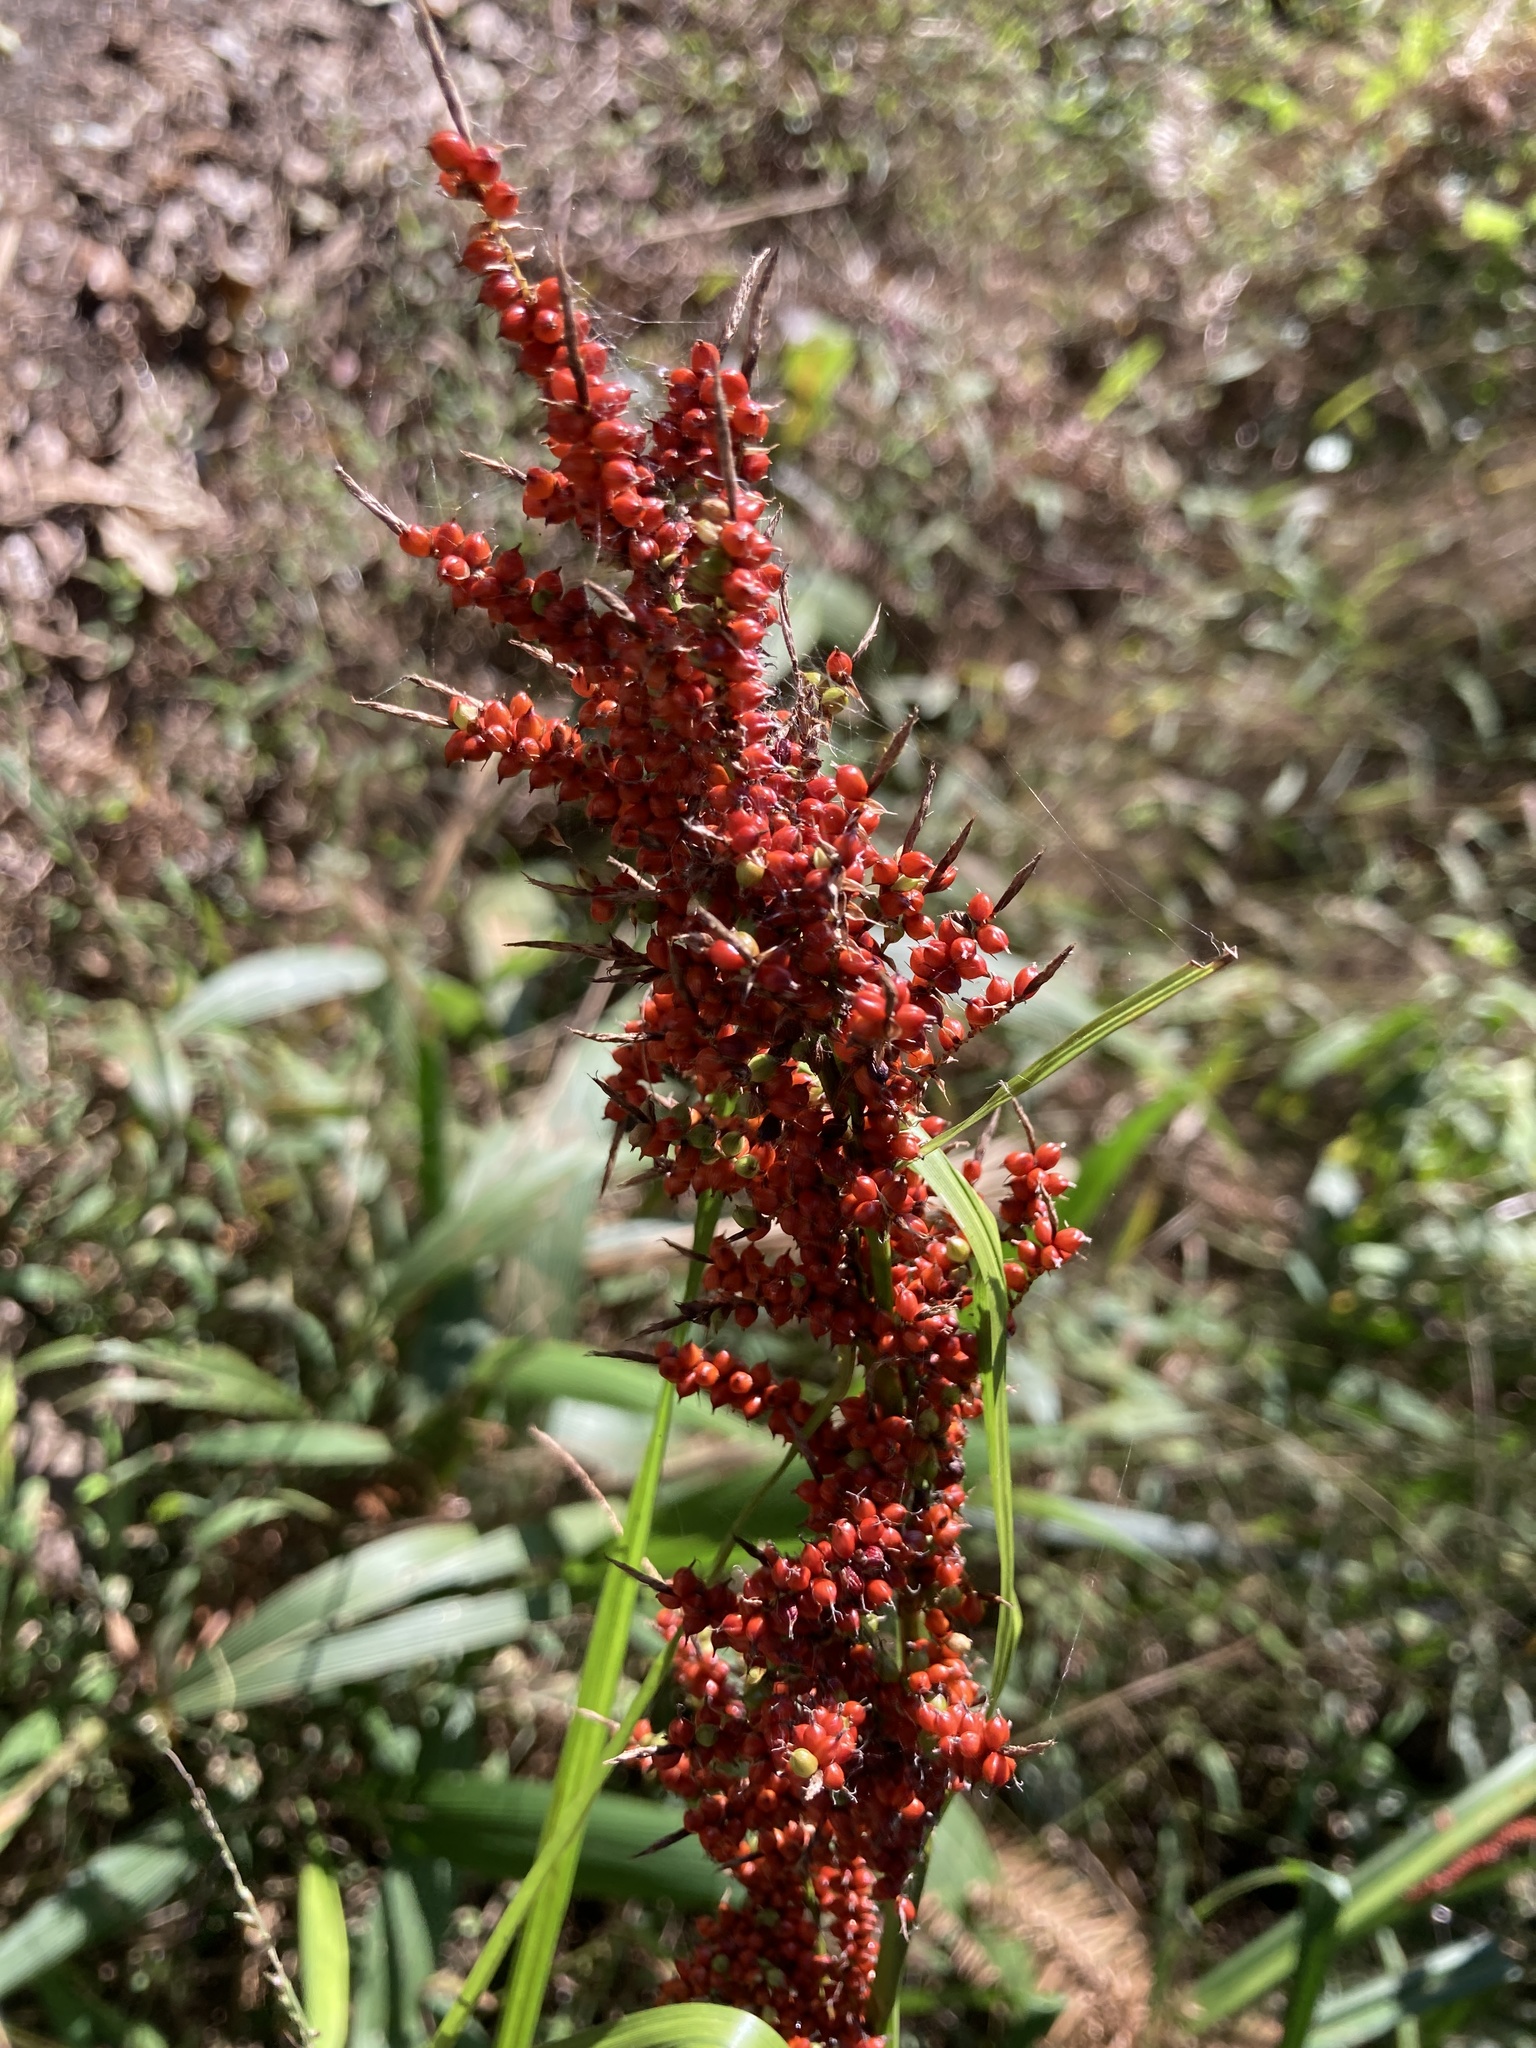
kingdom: Plantae
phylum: Tracheophyta
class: Liliopsida
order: Poales
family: Cyperaceae
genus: Carex
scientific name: Carex baccans
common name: Crimson seeded sedge
